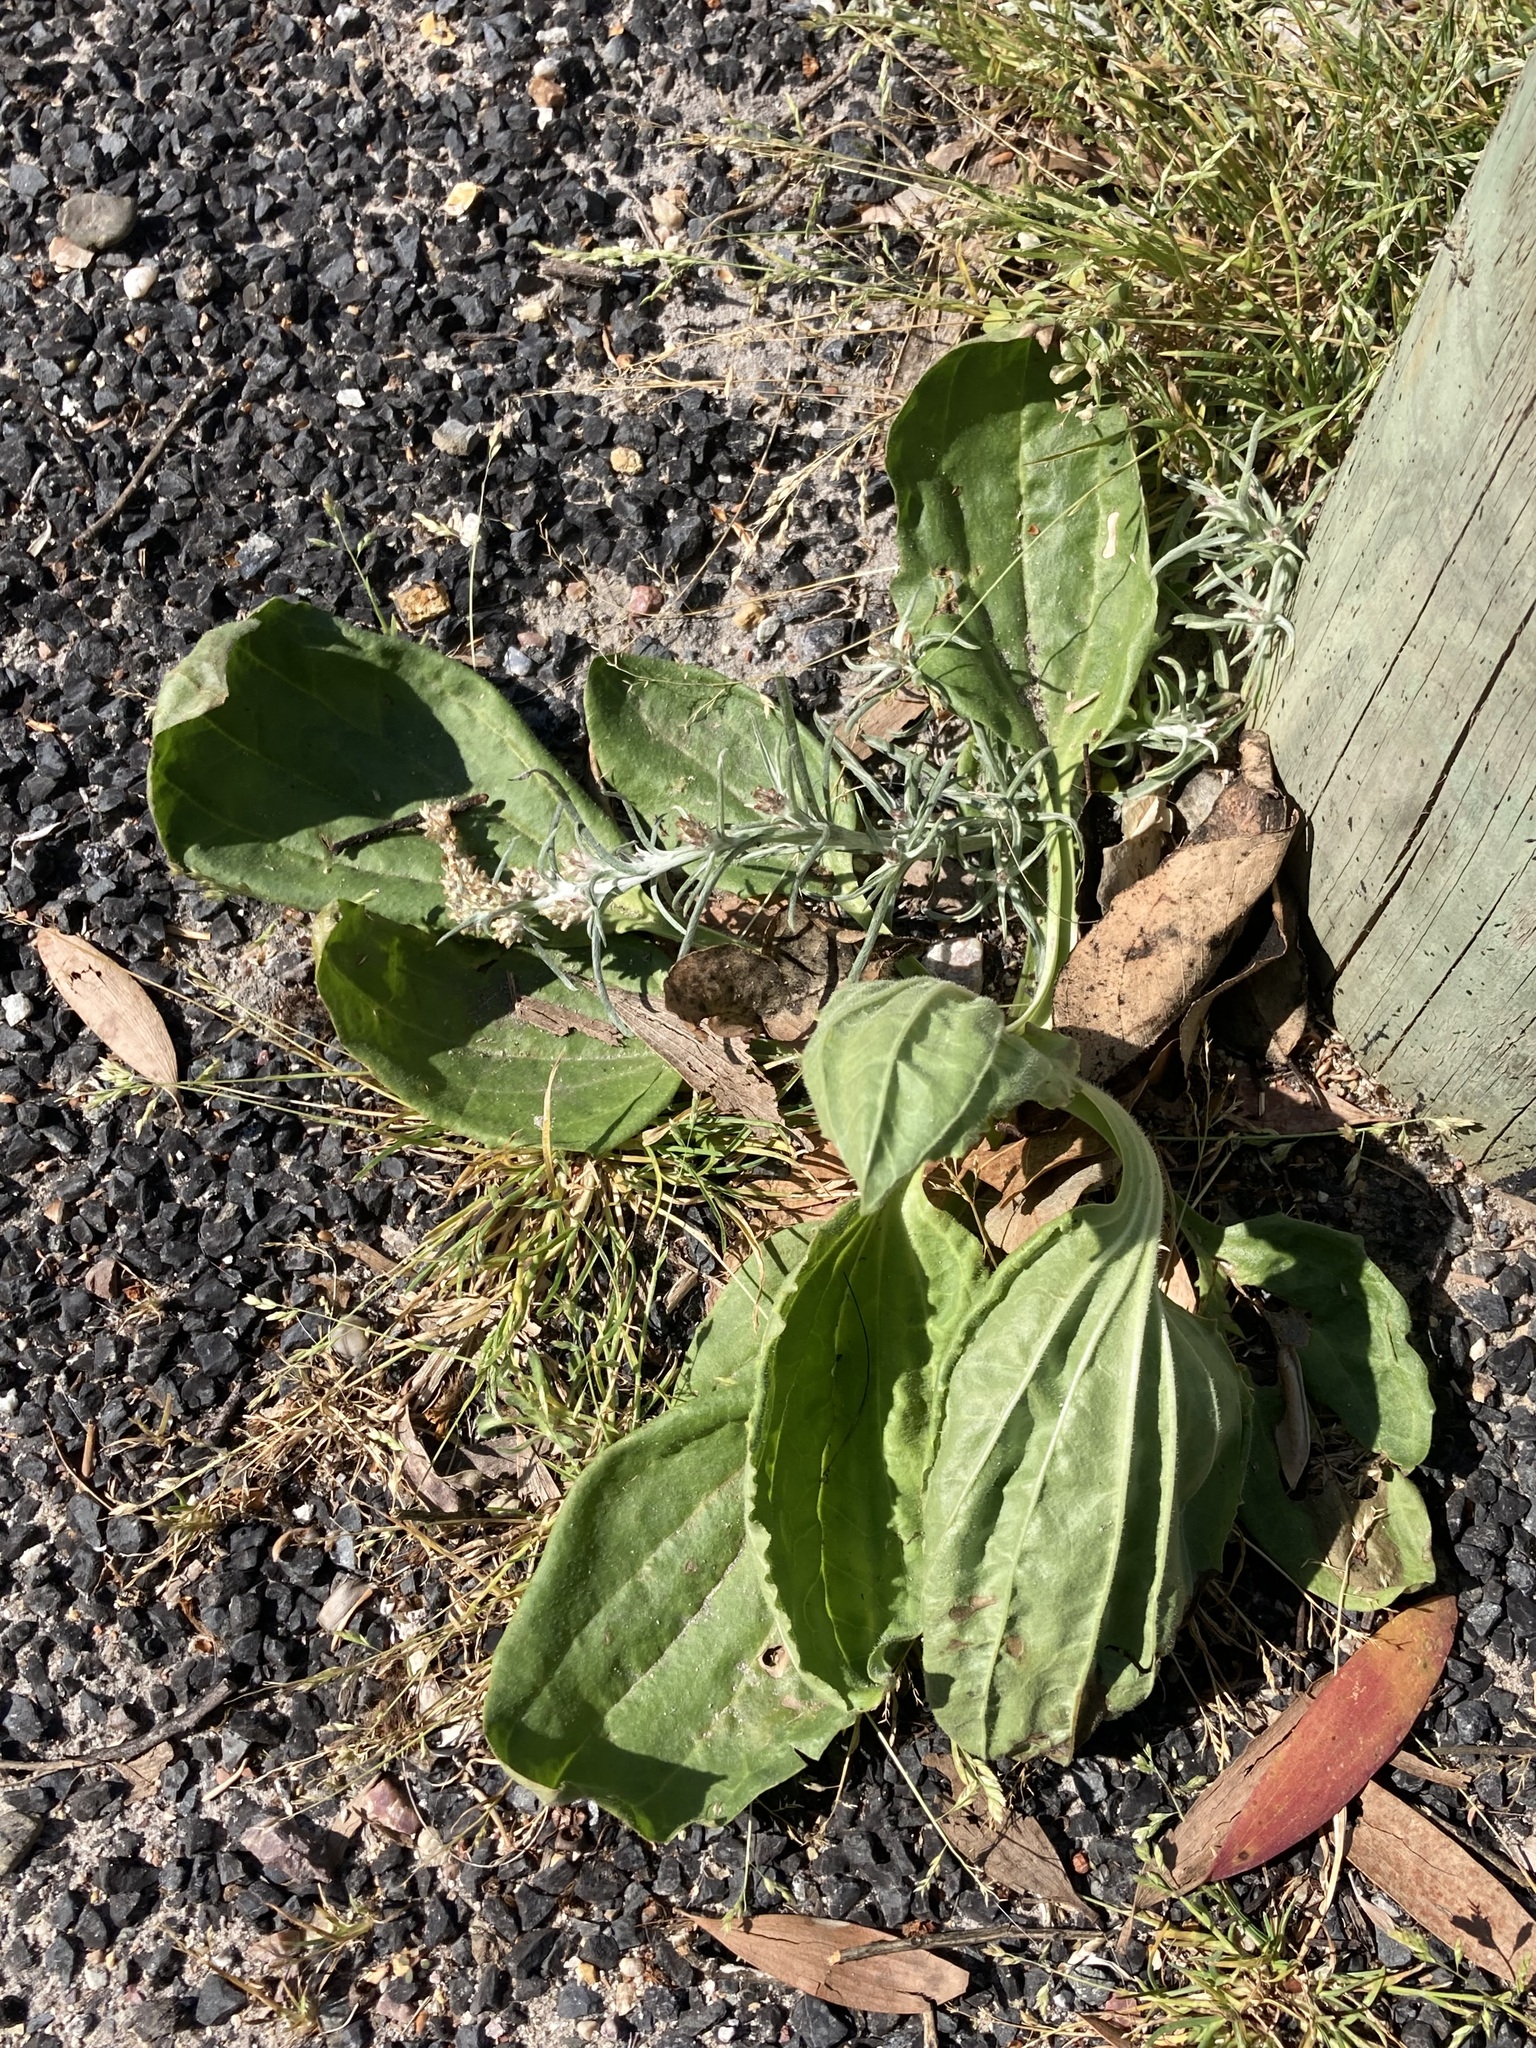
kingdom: Plantae
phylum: Tracheophyta
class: Magnoliopsida
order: Lamiales
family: Plantaginaceae
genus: Plantago
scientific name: Plantago major
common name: Common plantain
